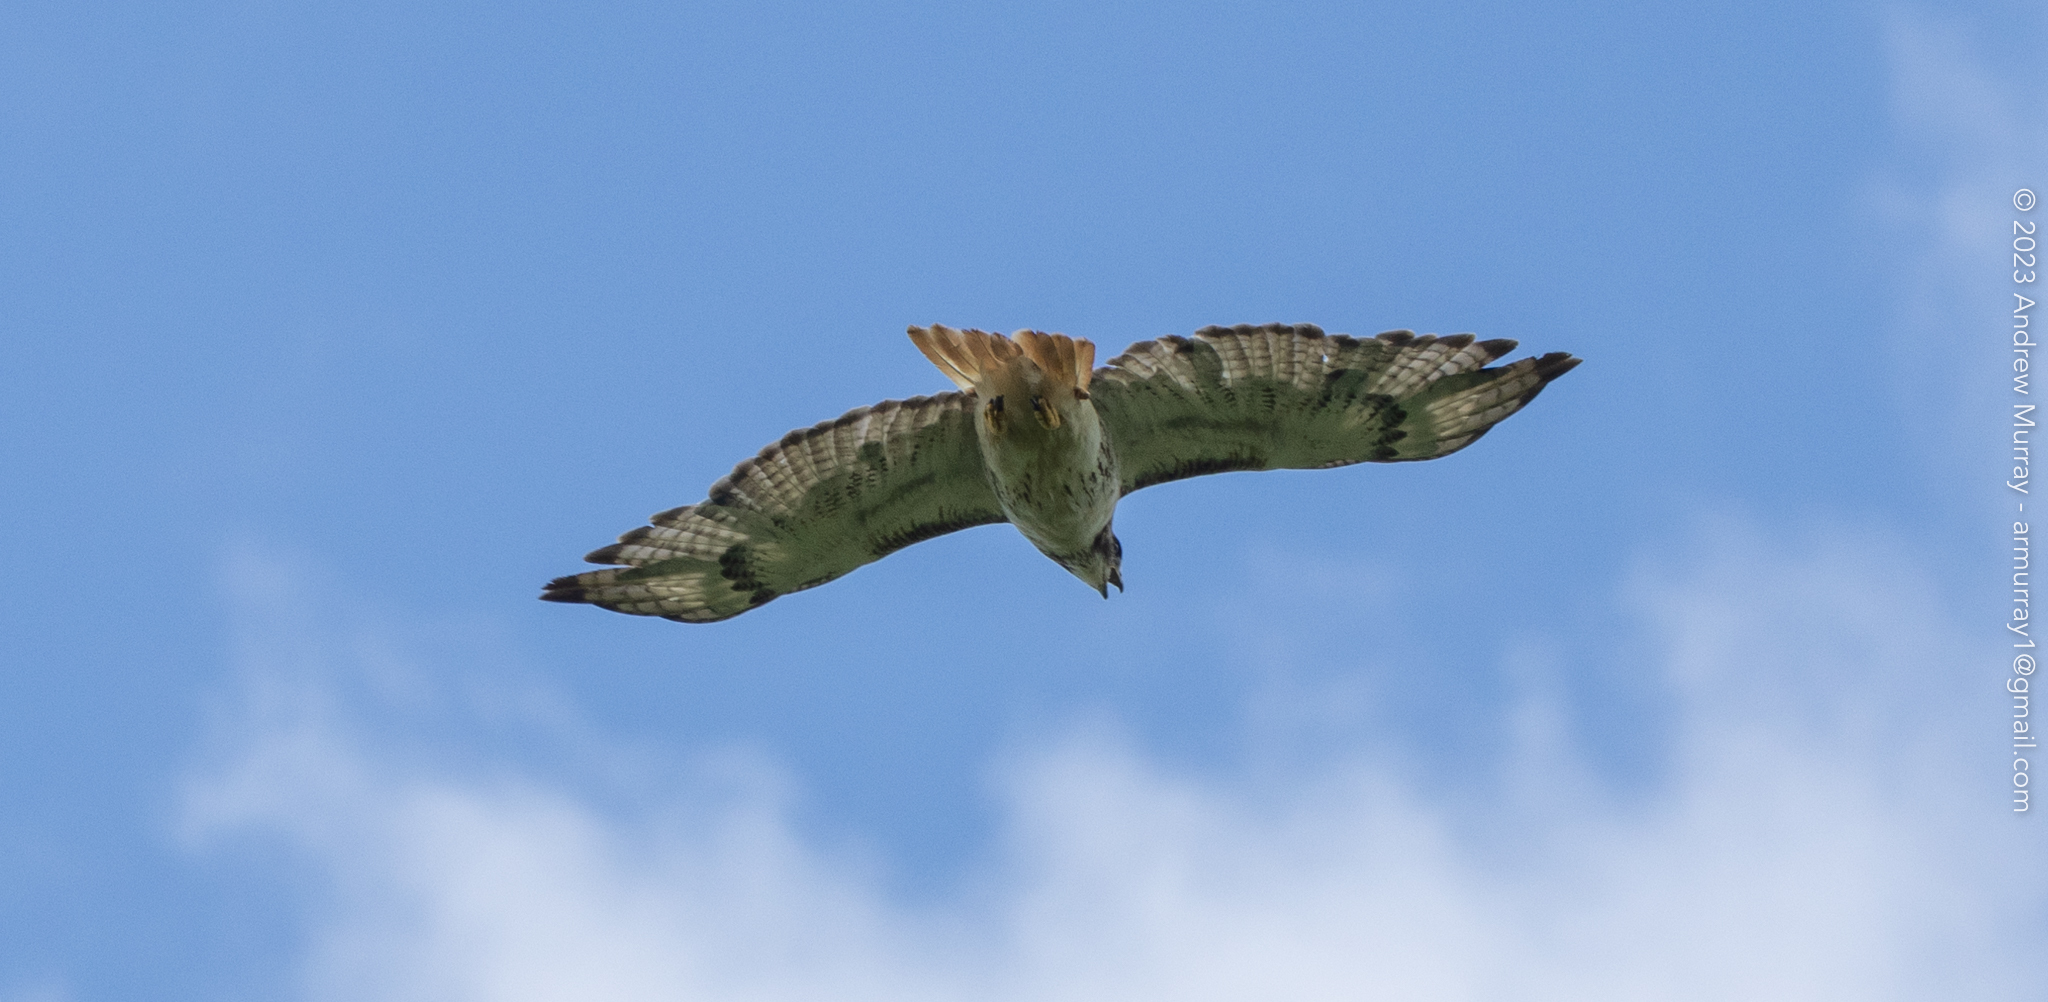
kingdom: Animalia
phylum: Chordata
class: Aves
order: Accipitriformes
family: Accipitridae
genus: Buteo
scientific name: Buteo jamaicensis
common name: Red-tailed hawk
